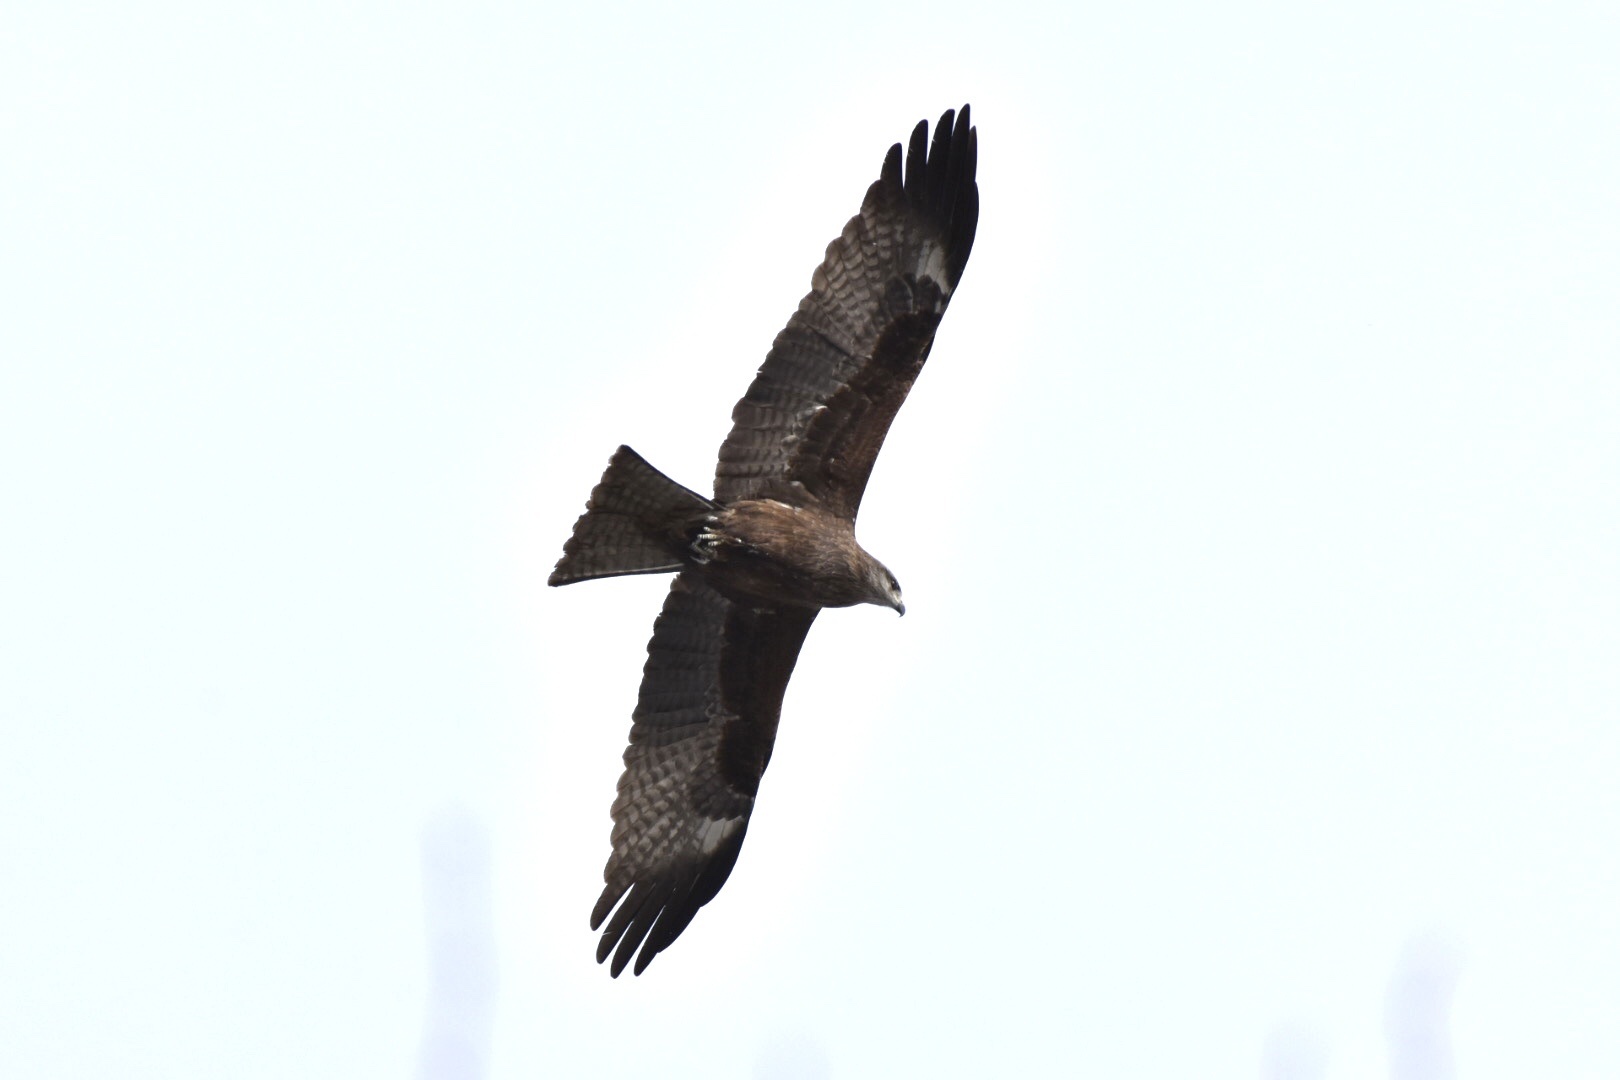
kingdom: Animalia
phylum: Chordata
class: Aves
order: Accipitriformes
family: Accipitridae
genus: Milvus
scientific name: Milvus migrans
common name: Black kite
